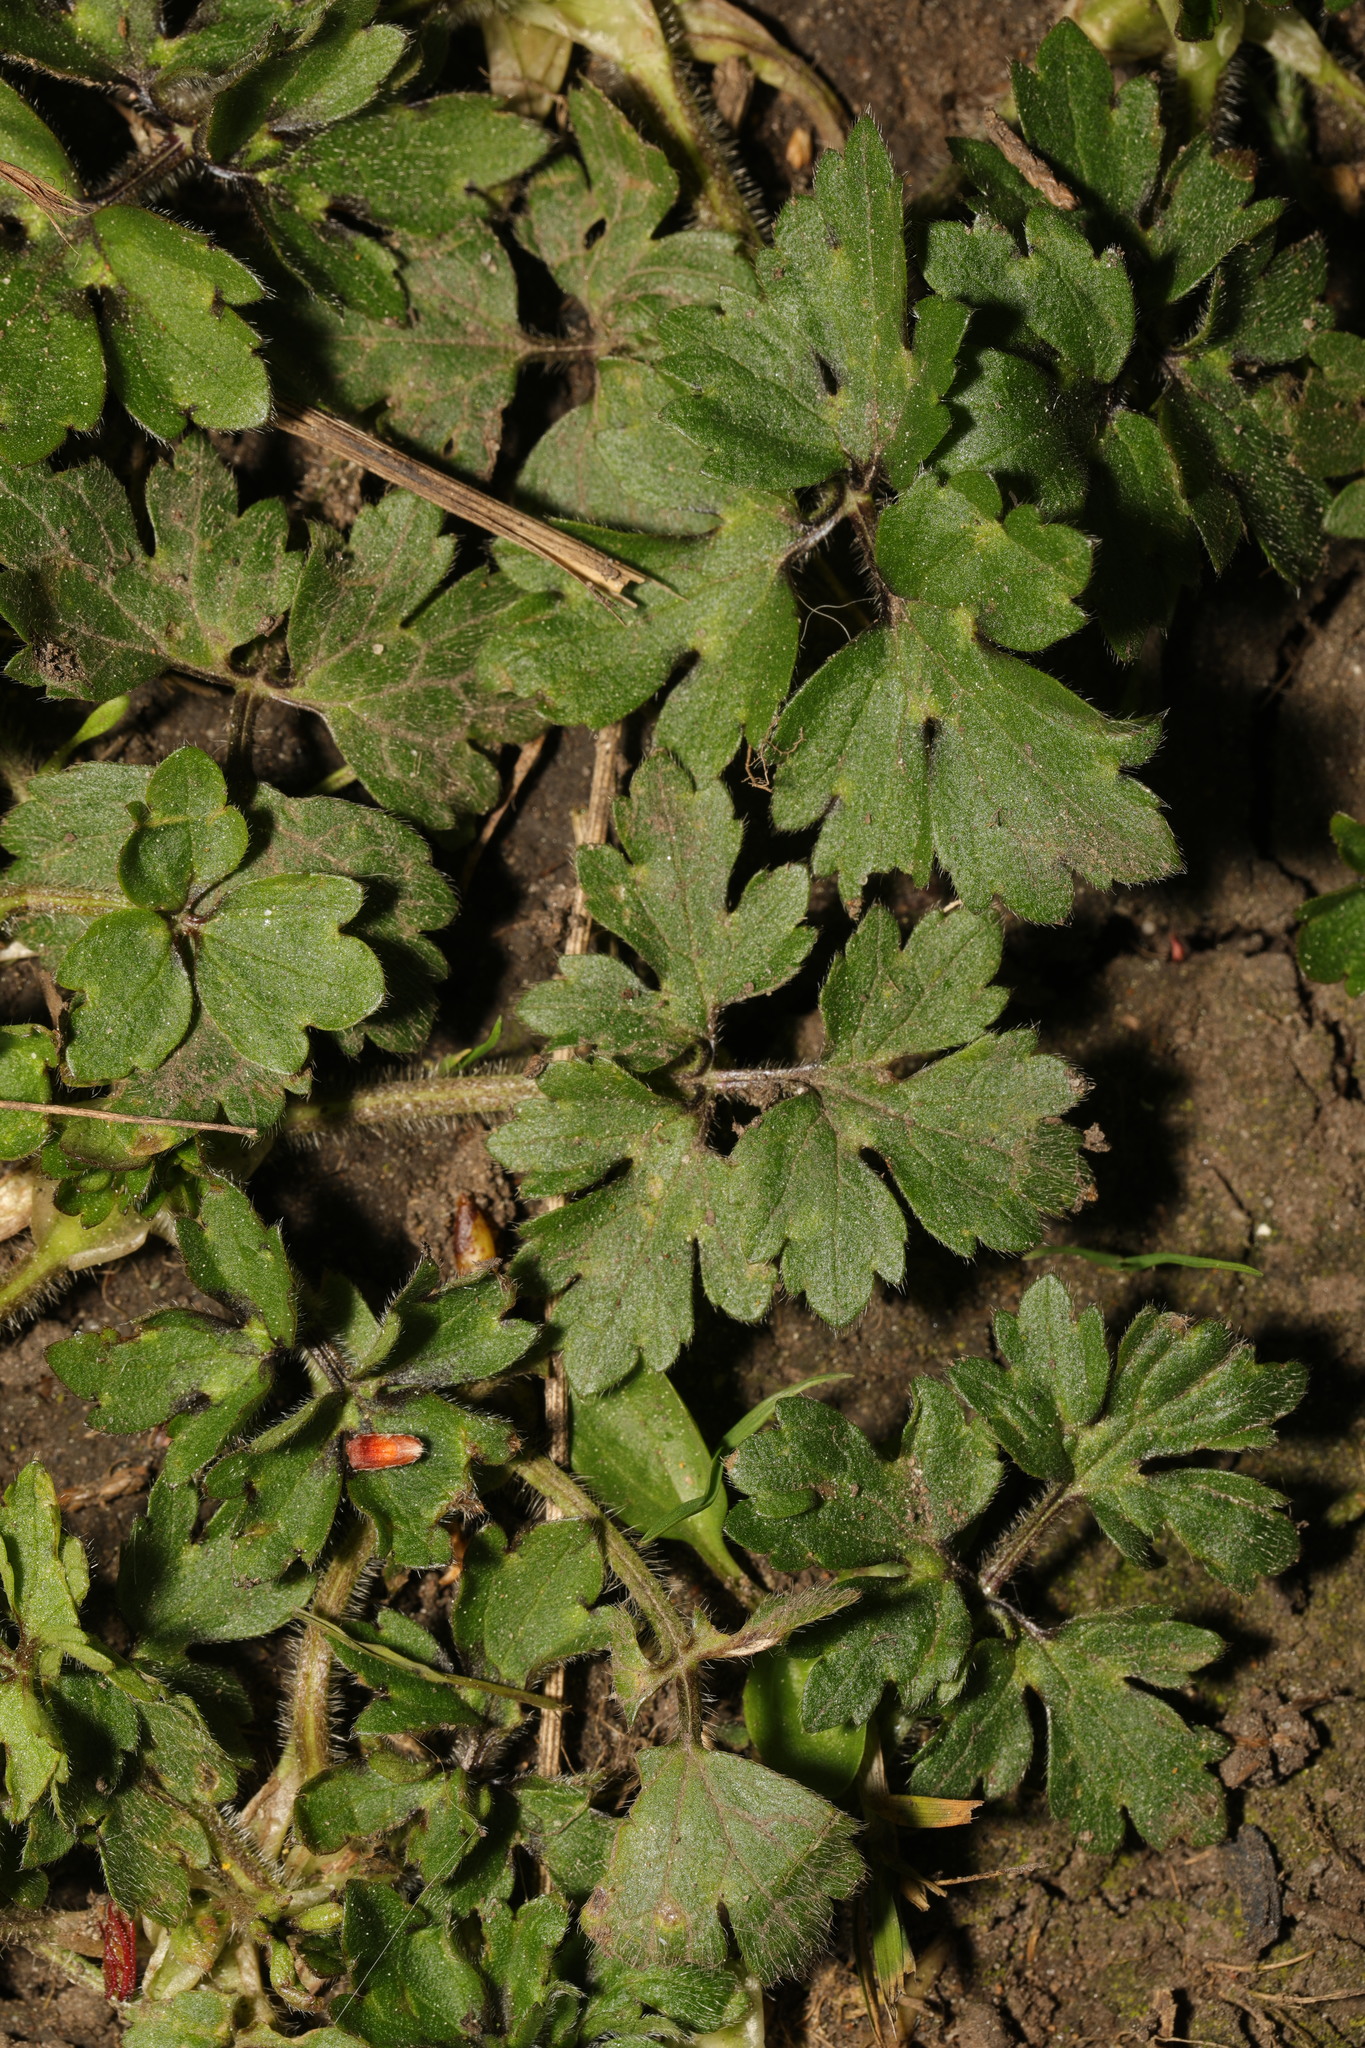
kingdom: Plantae
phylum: Tracheophyta
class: Magnoliopsida
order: Ranunculales
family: Ranunculaceae
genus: Ranunculus
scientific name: Ranunculus repens
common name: Creeping buttercup
